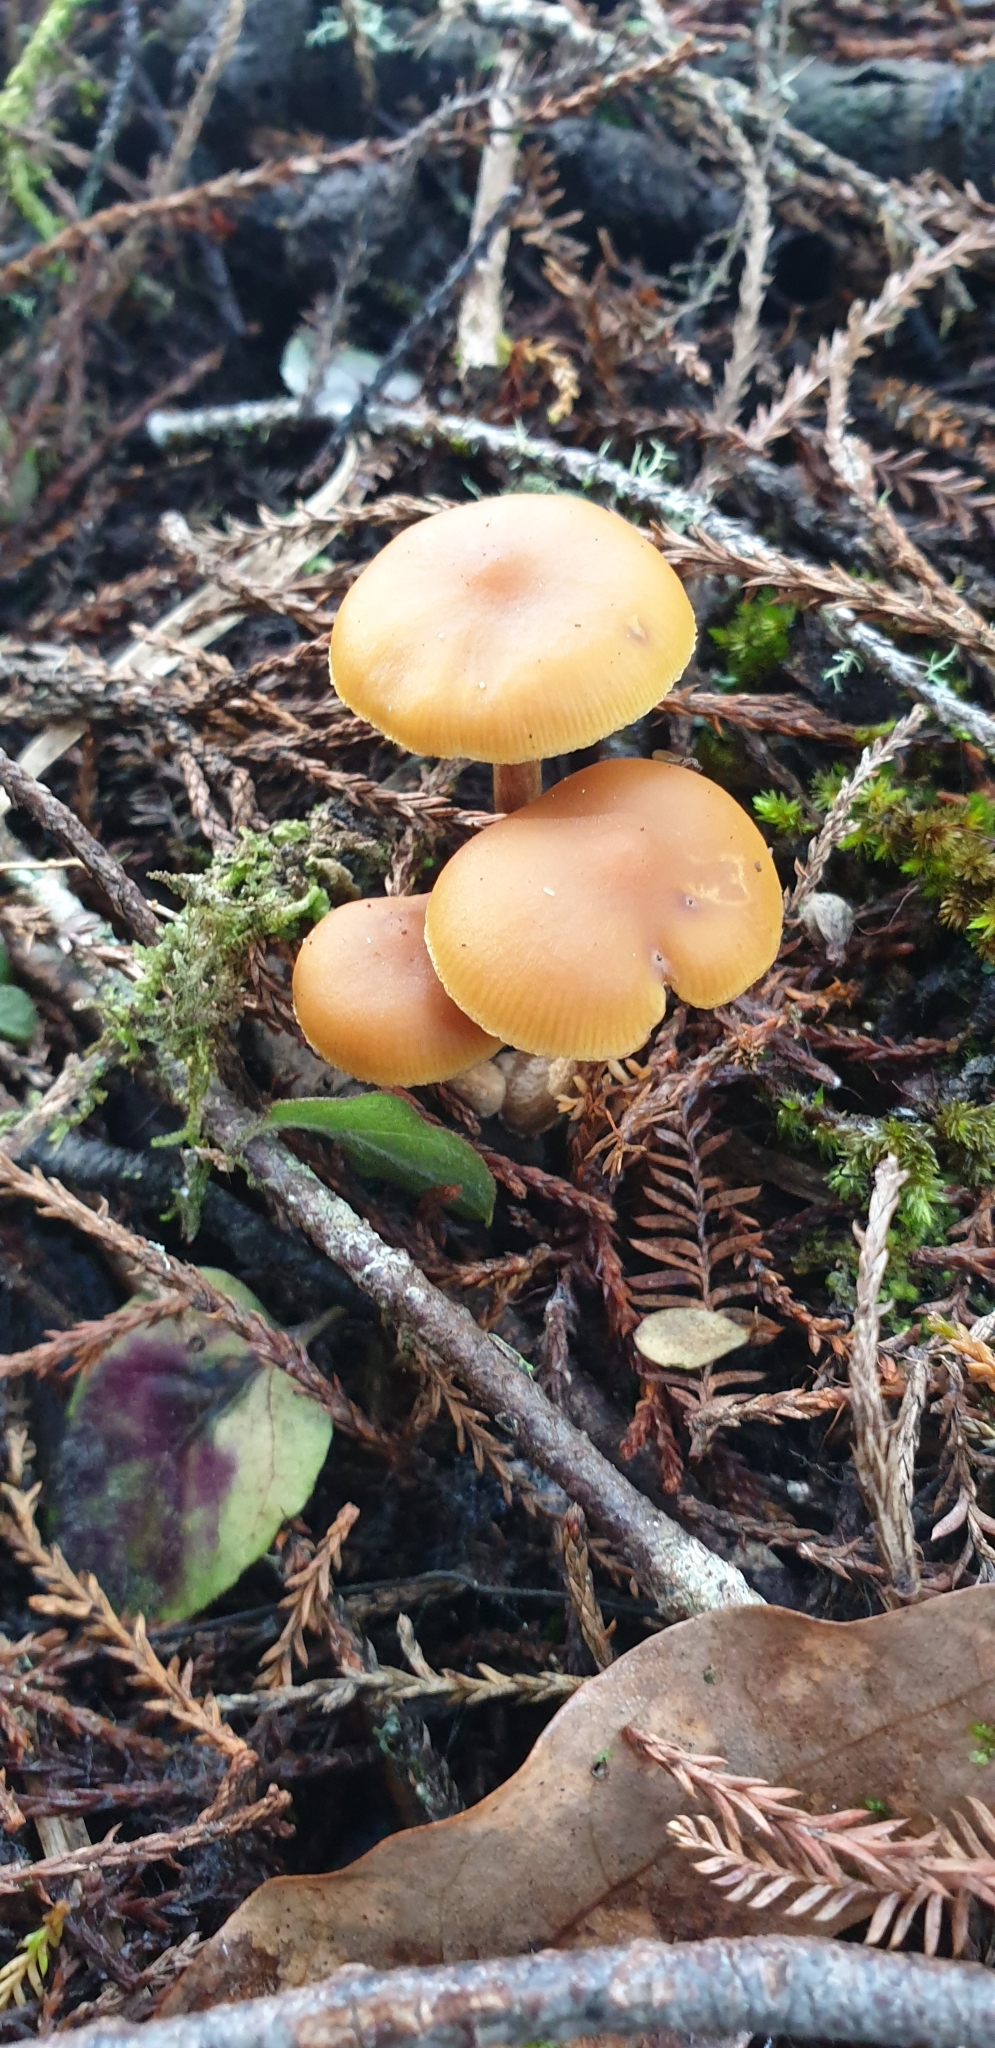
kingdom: Fungi
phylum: Basidiomycota
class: Agaricomycetes
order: Agaricales
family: Hymenogastraceae
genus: Galerina
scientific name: Galerina patagonica
